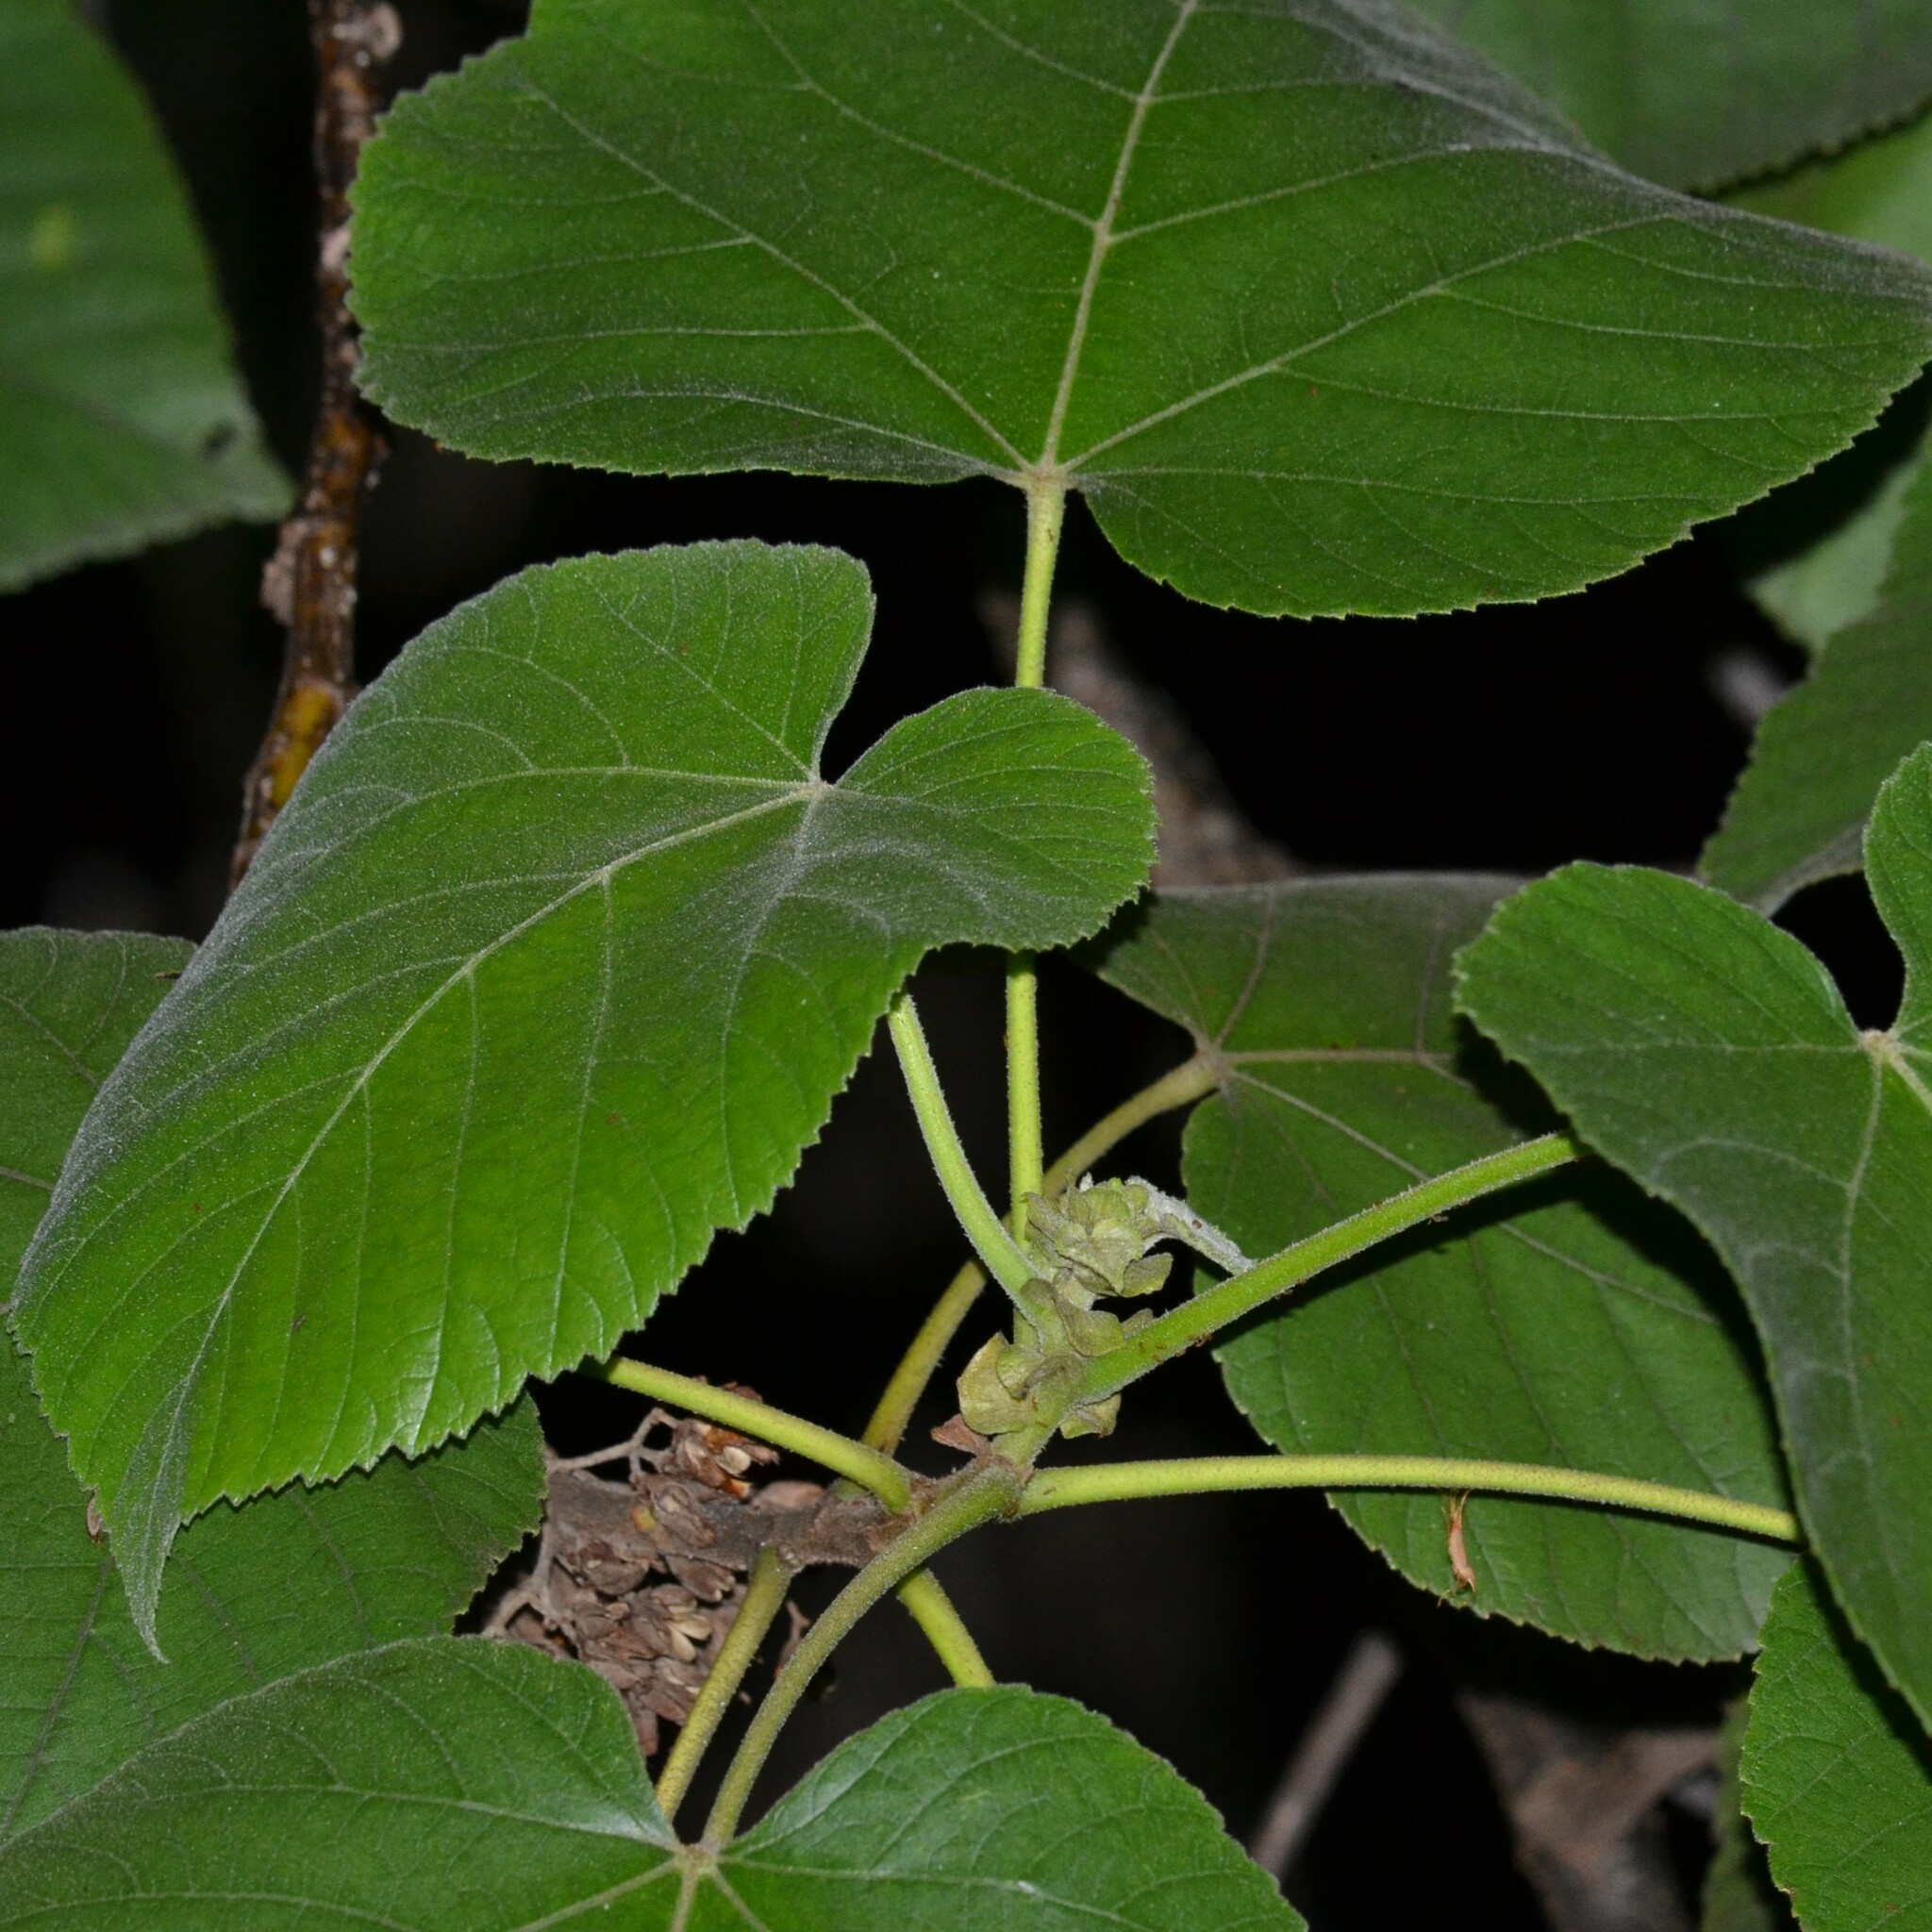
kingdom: Plantae
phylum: Tracheophyta
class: Magnoliopsida
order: Malvales
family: Malvaceae
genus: Melochia
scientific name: Melochia umbellata
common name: Gunpowder tree
